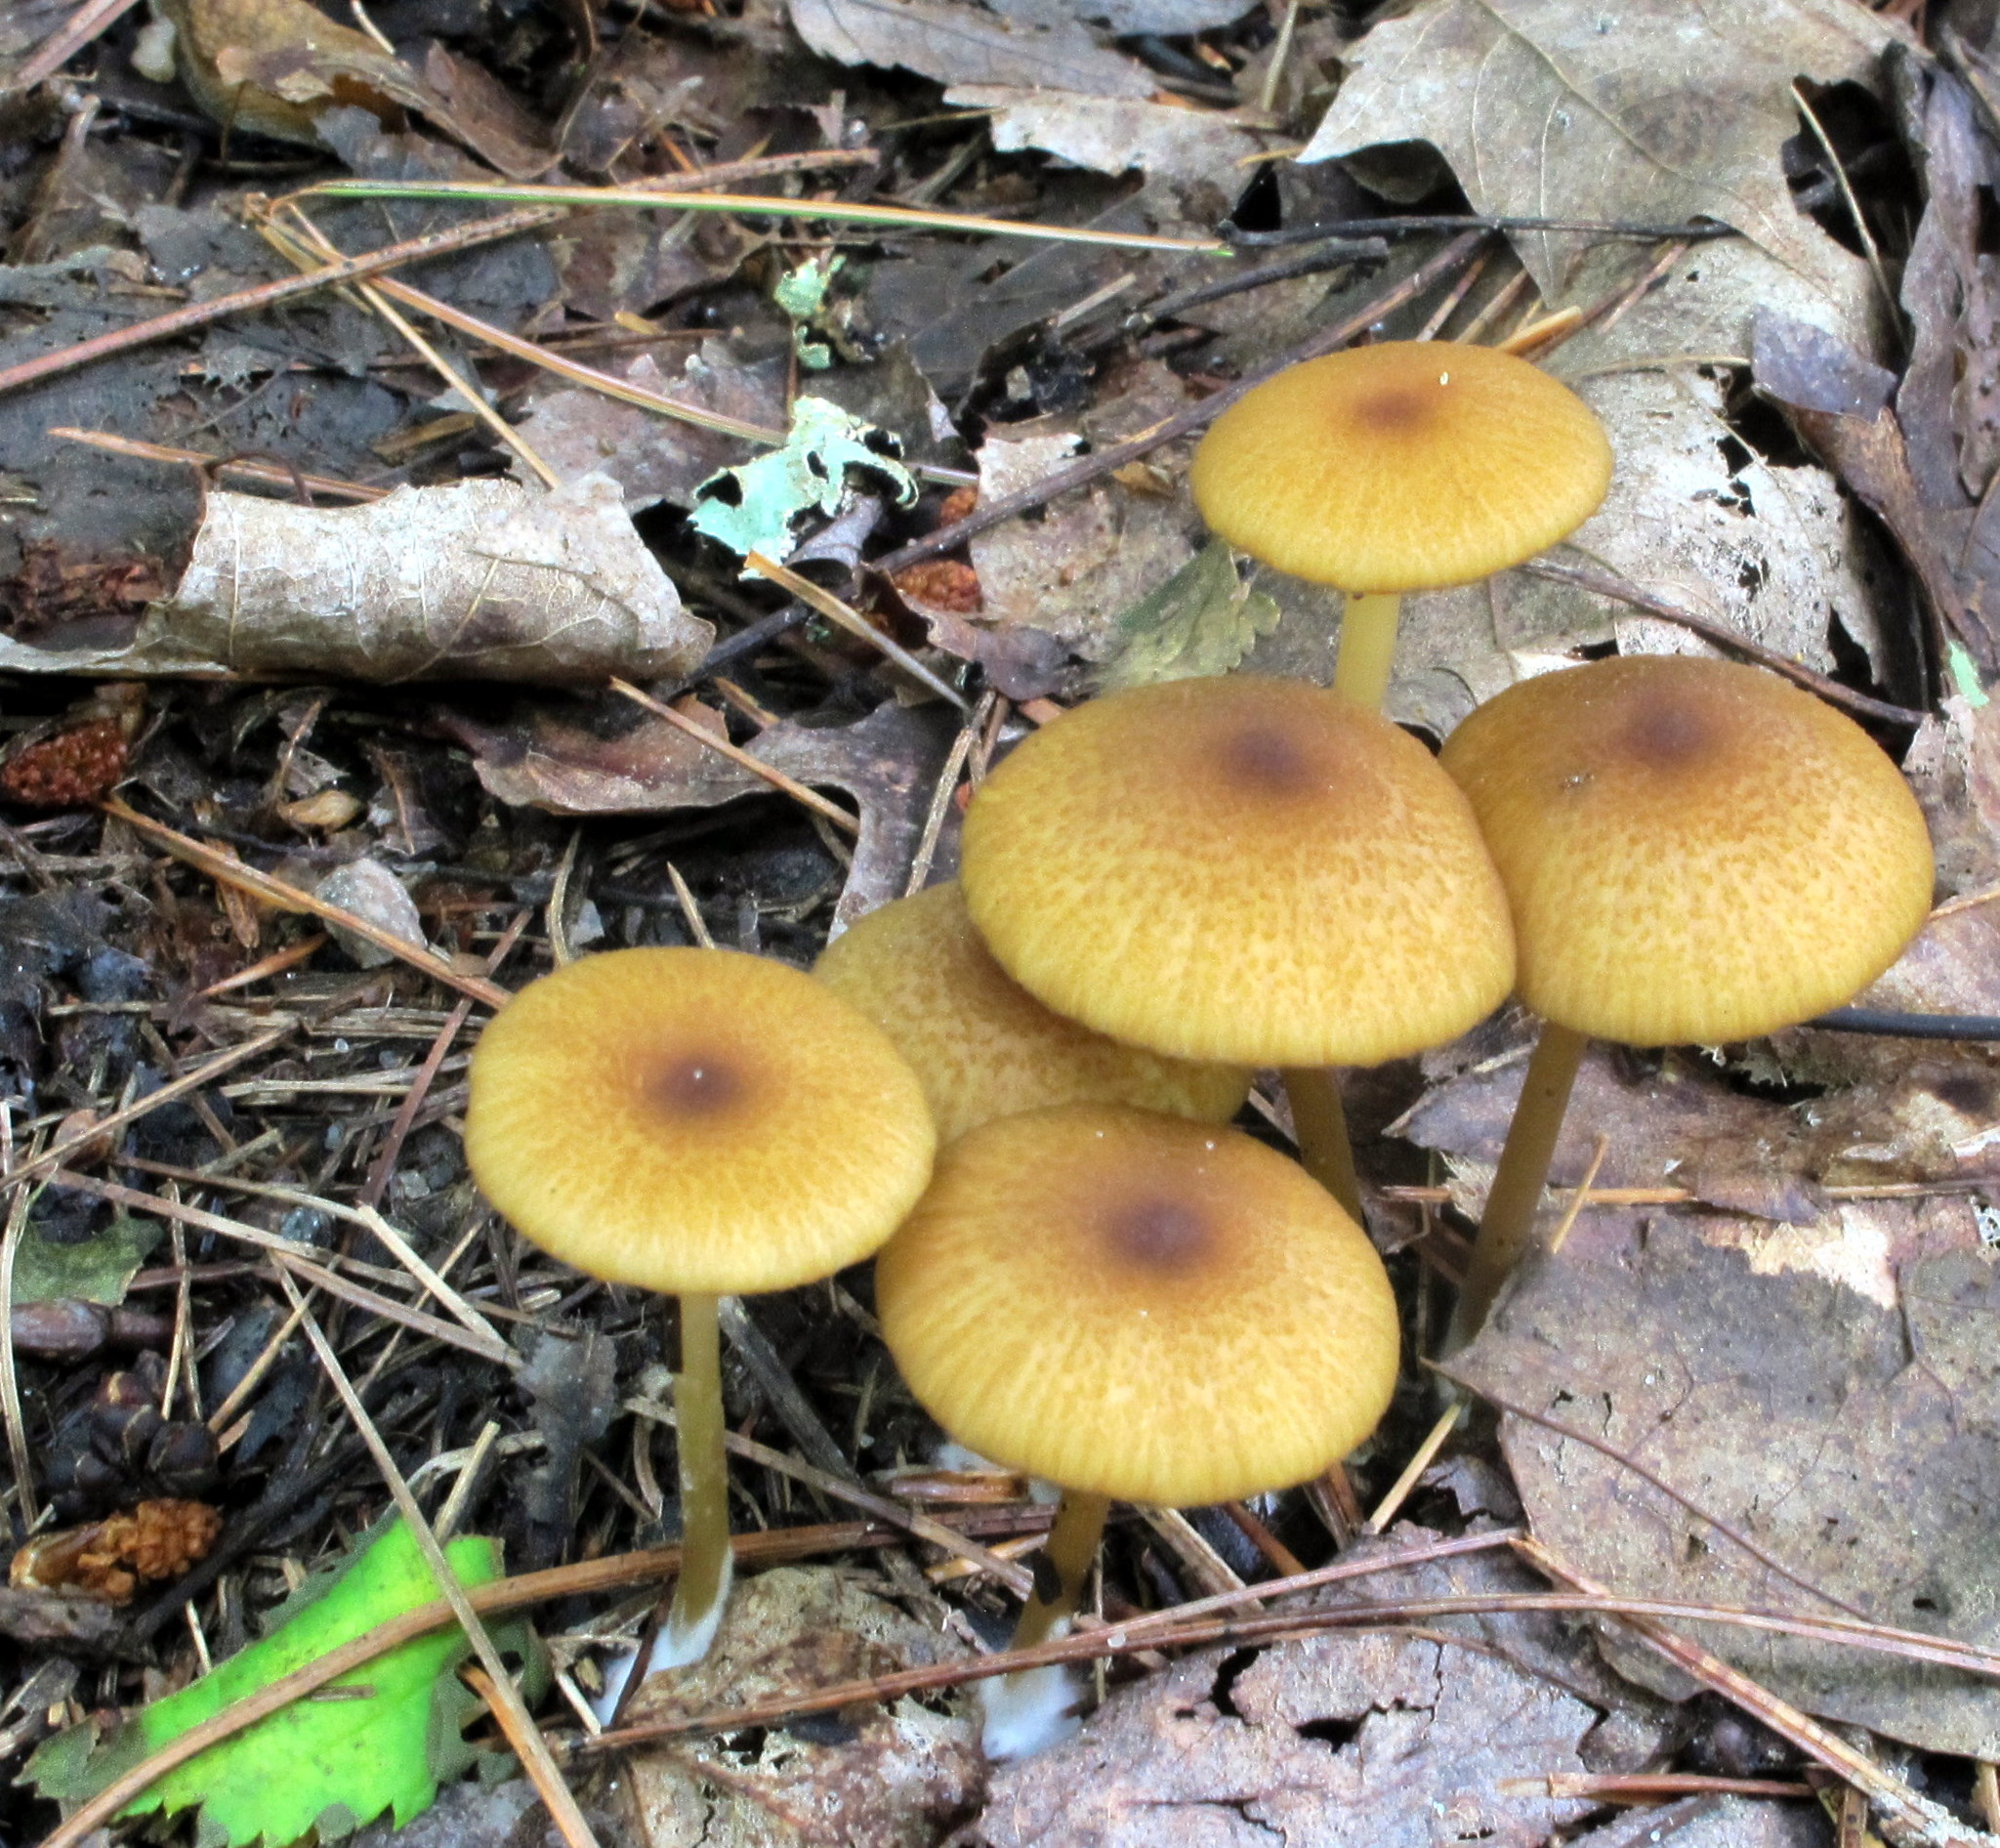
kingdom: Fungi
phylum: Basidiomycota
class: Agaricomycetes
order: Agaricales
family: Entolomataceae
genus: Entoloma
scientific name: Entoloma formosum
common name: Pretty pinkgill
